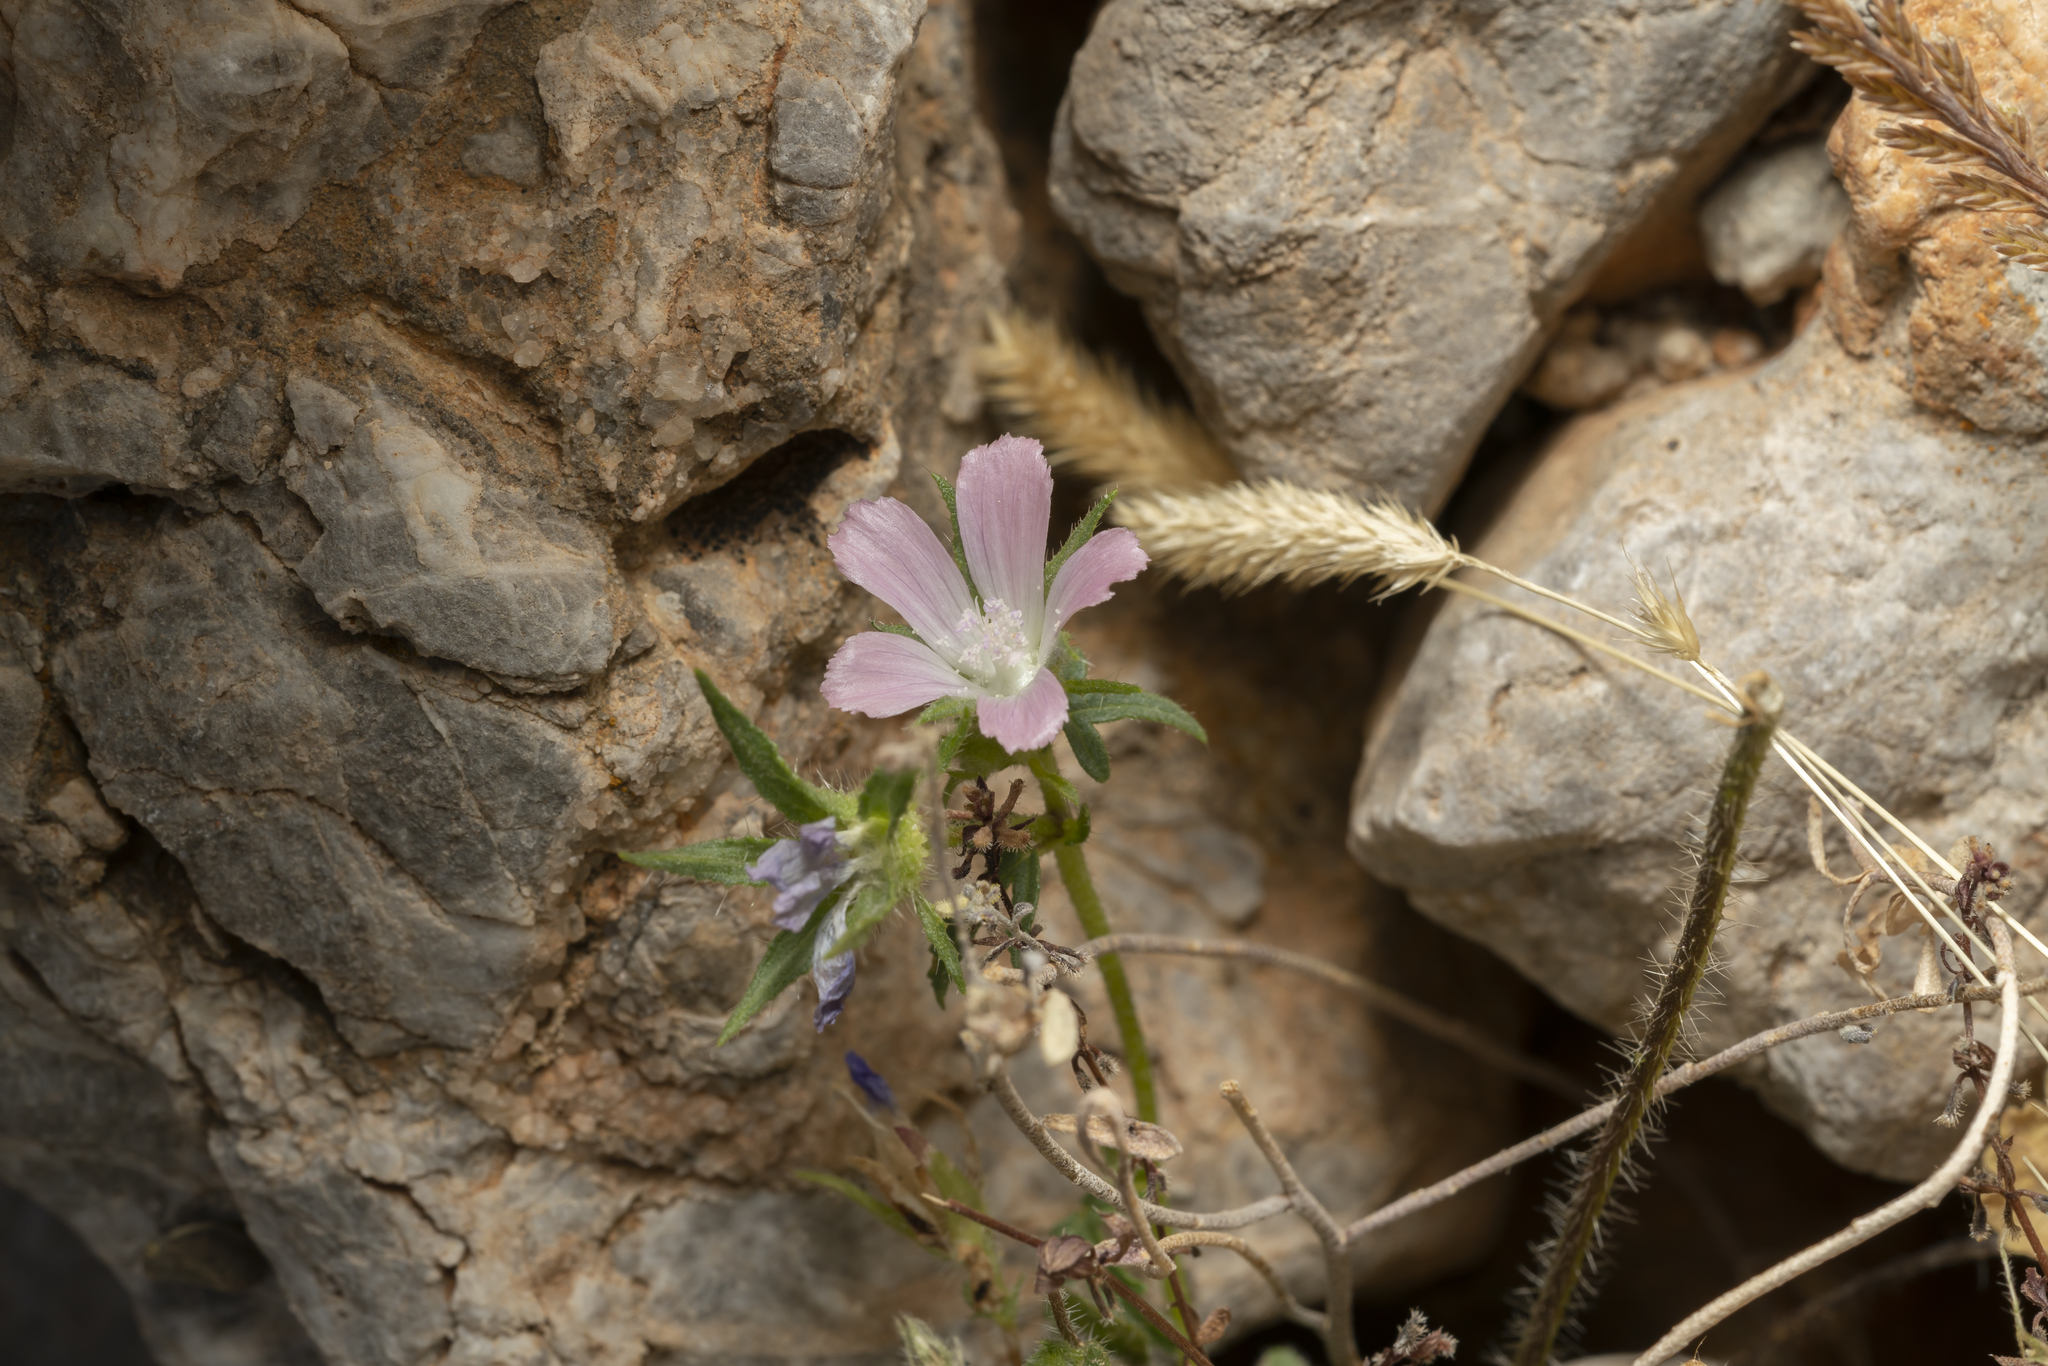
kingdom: Plantae
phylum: Tracheophyta
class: Magnoliopsida
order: Malvales
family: Malvaceae
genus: Malva
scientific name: Malva cretica
